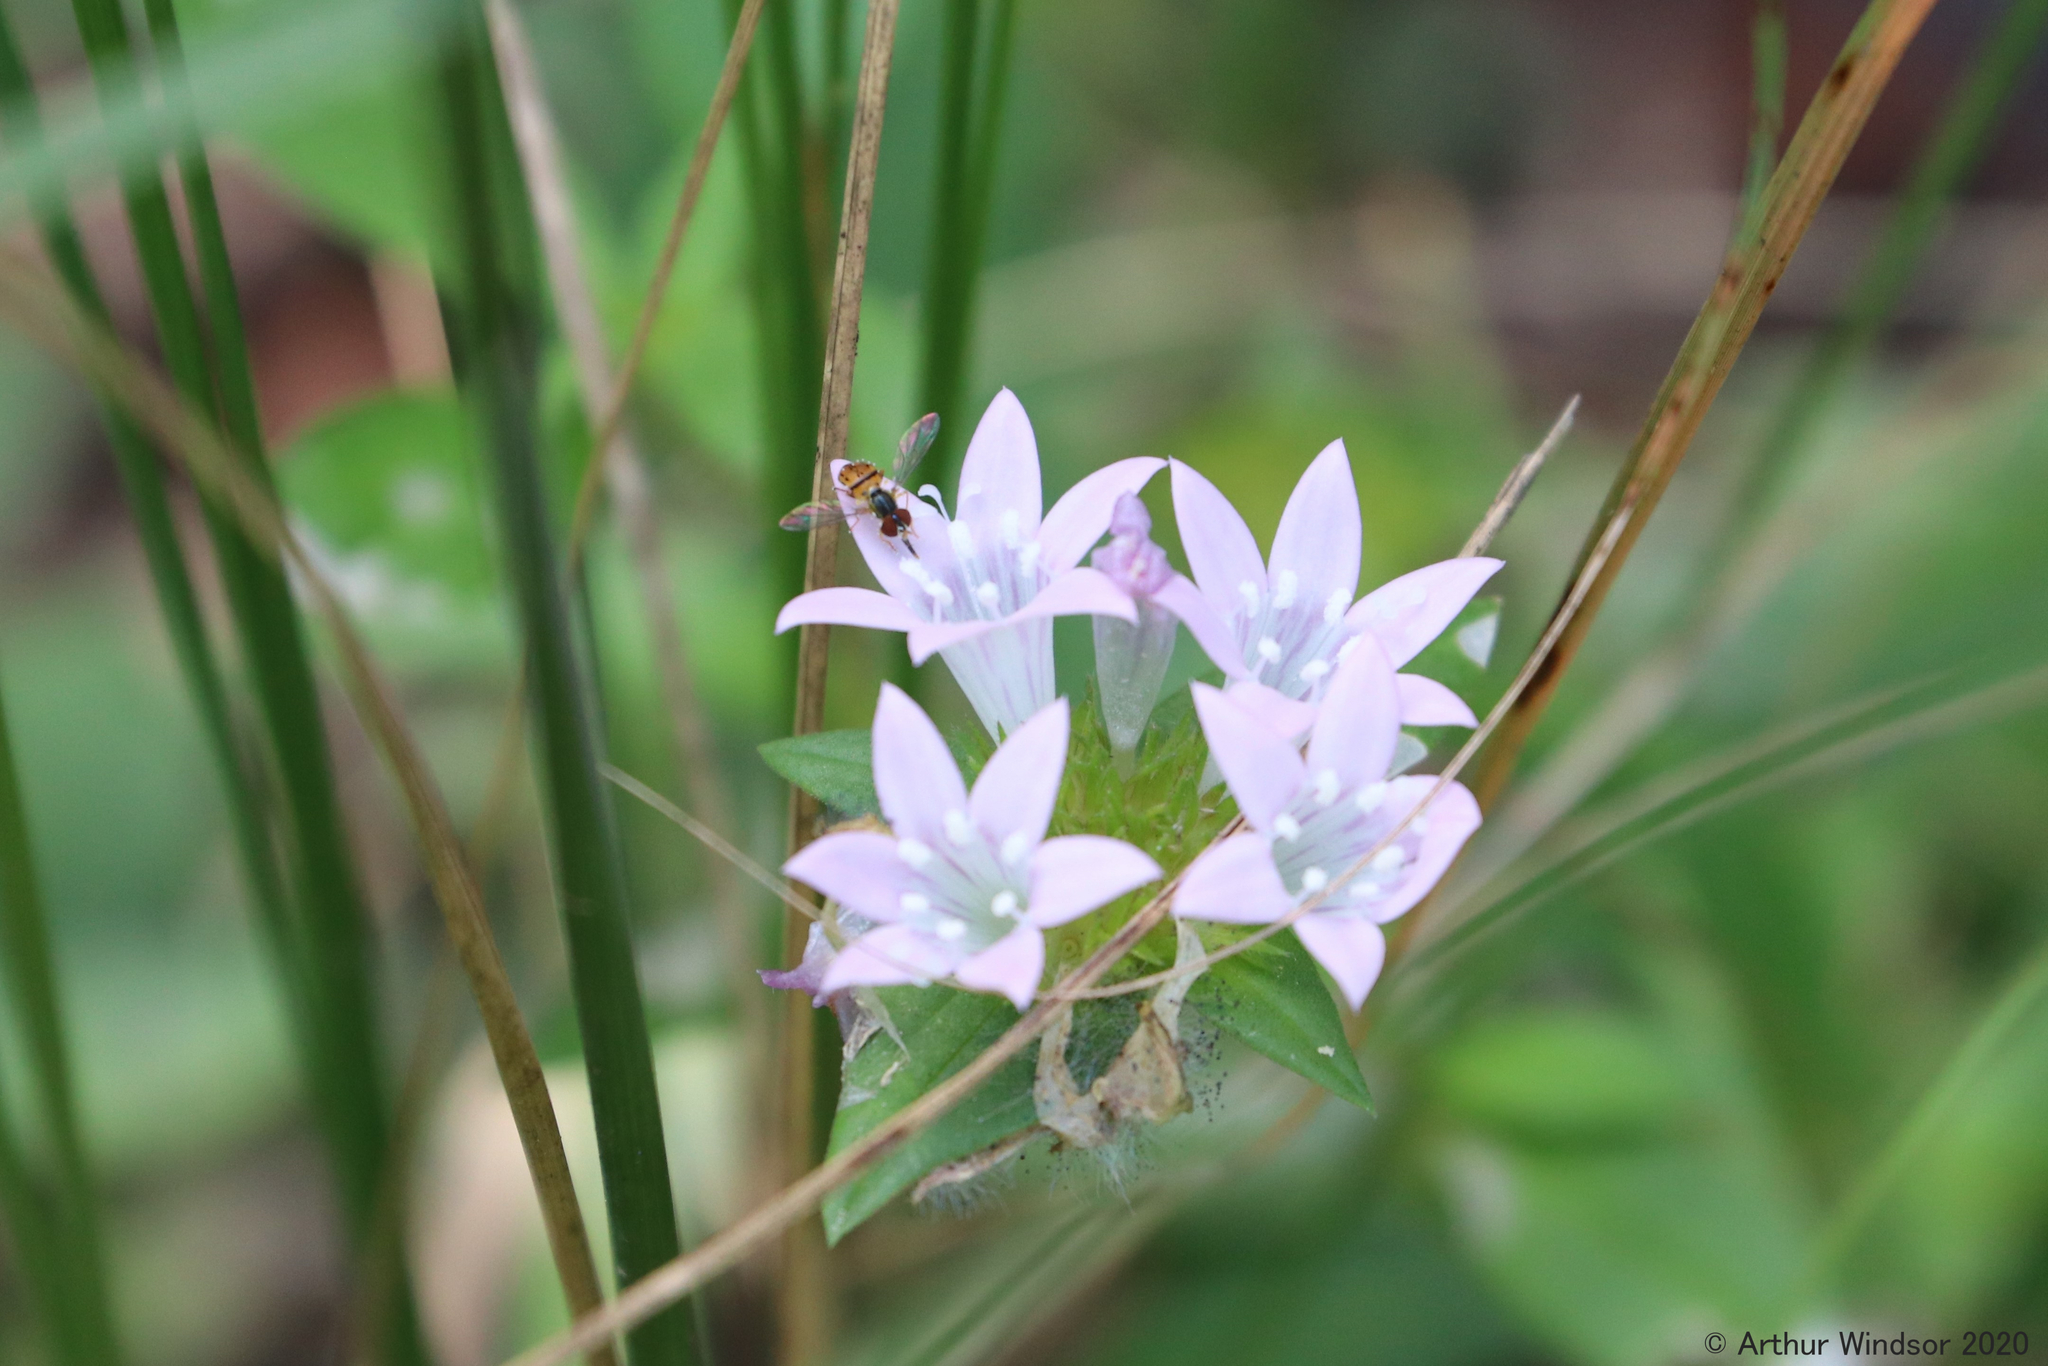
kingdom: Animalia
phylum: Arthropoda
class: Insecta
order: Diptera
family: Syrphidae
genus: Toxomerus
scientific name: Toxomerus boscii
